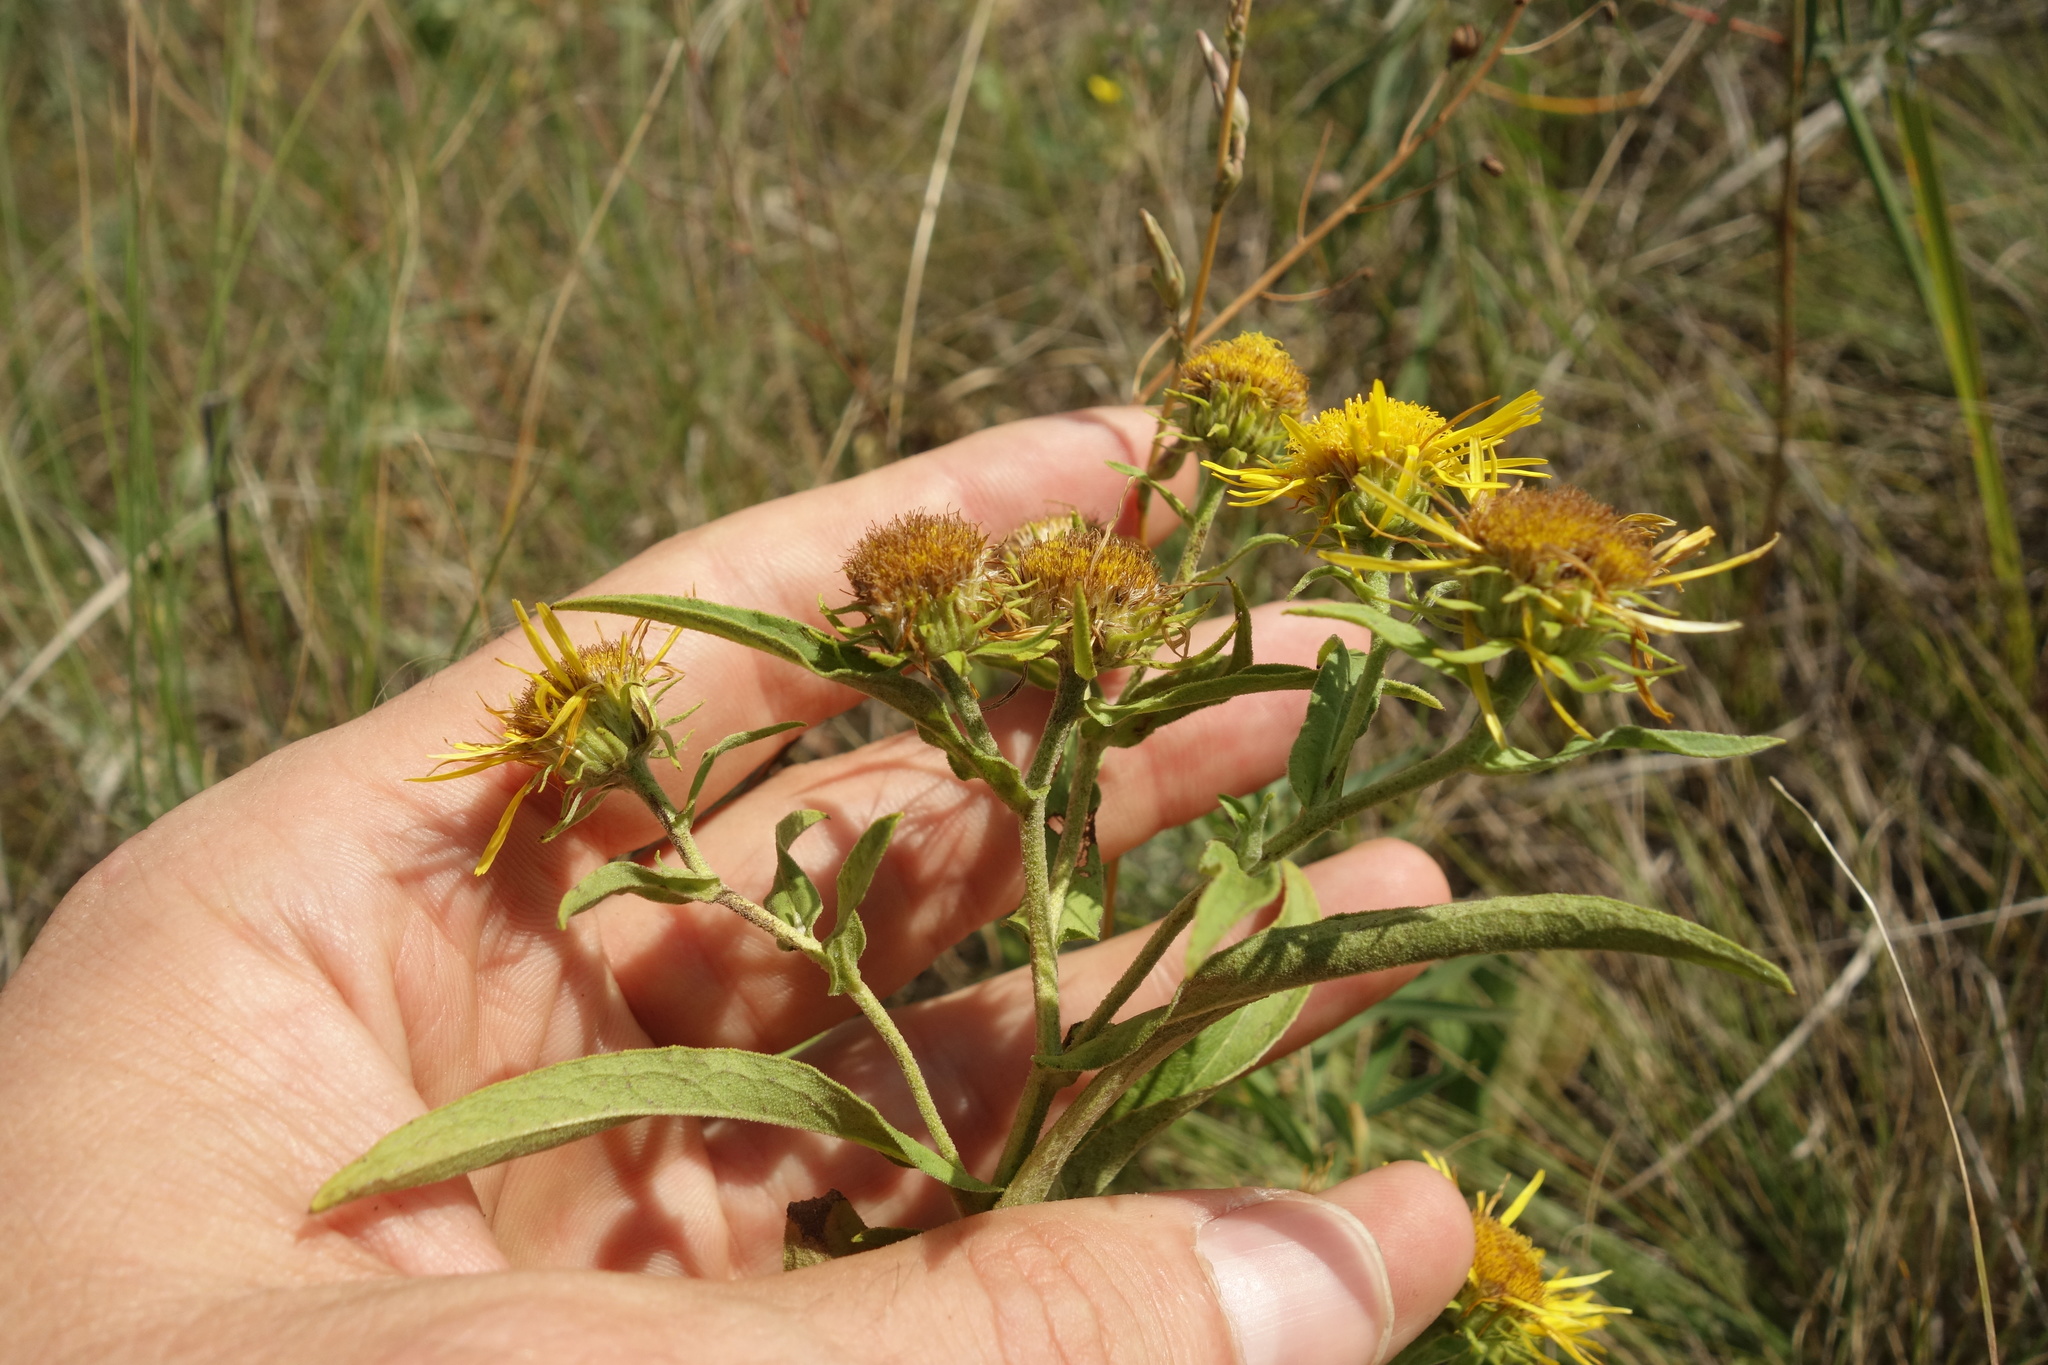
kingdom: Plantae
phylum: Tracheophyta
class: Magnoliopsida
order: Asterales
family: Asteraceae
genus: Pentanema
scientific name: Pentanema britannicum
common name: British elecampane
